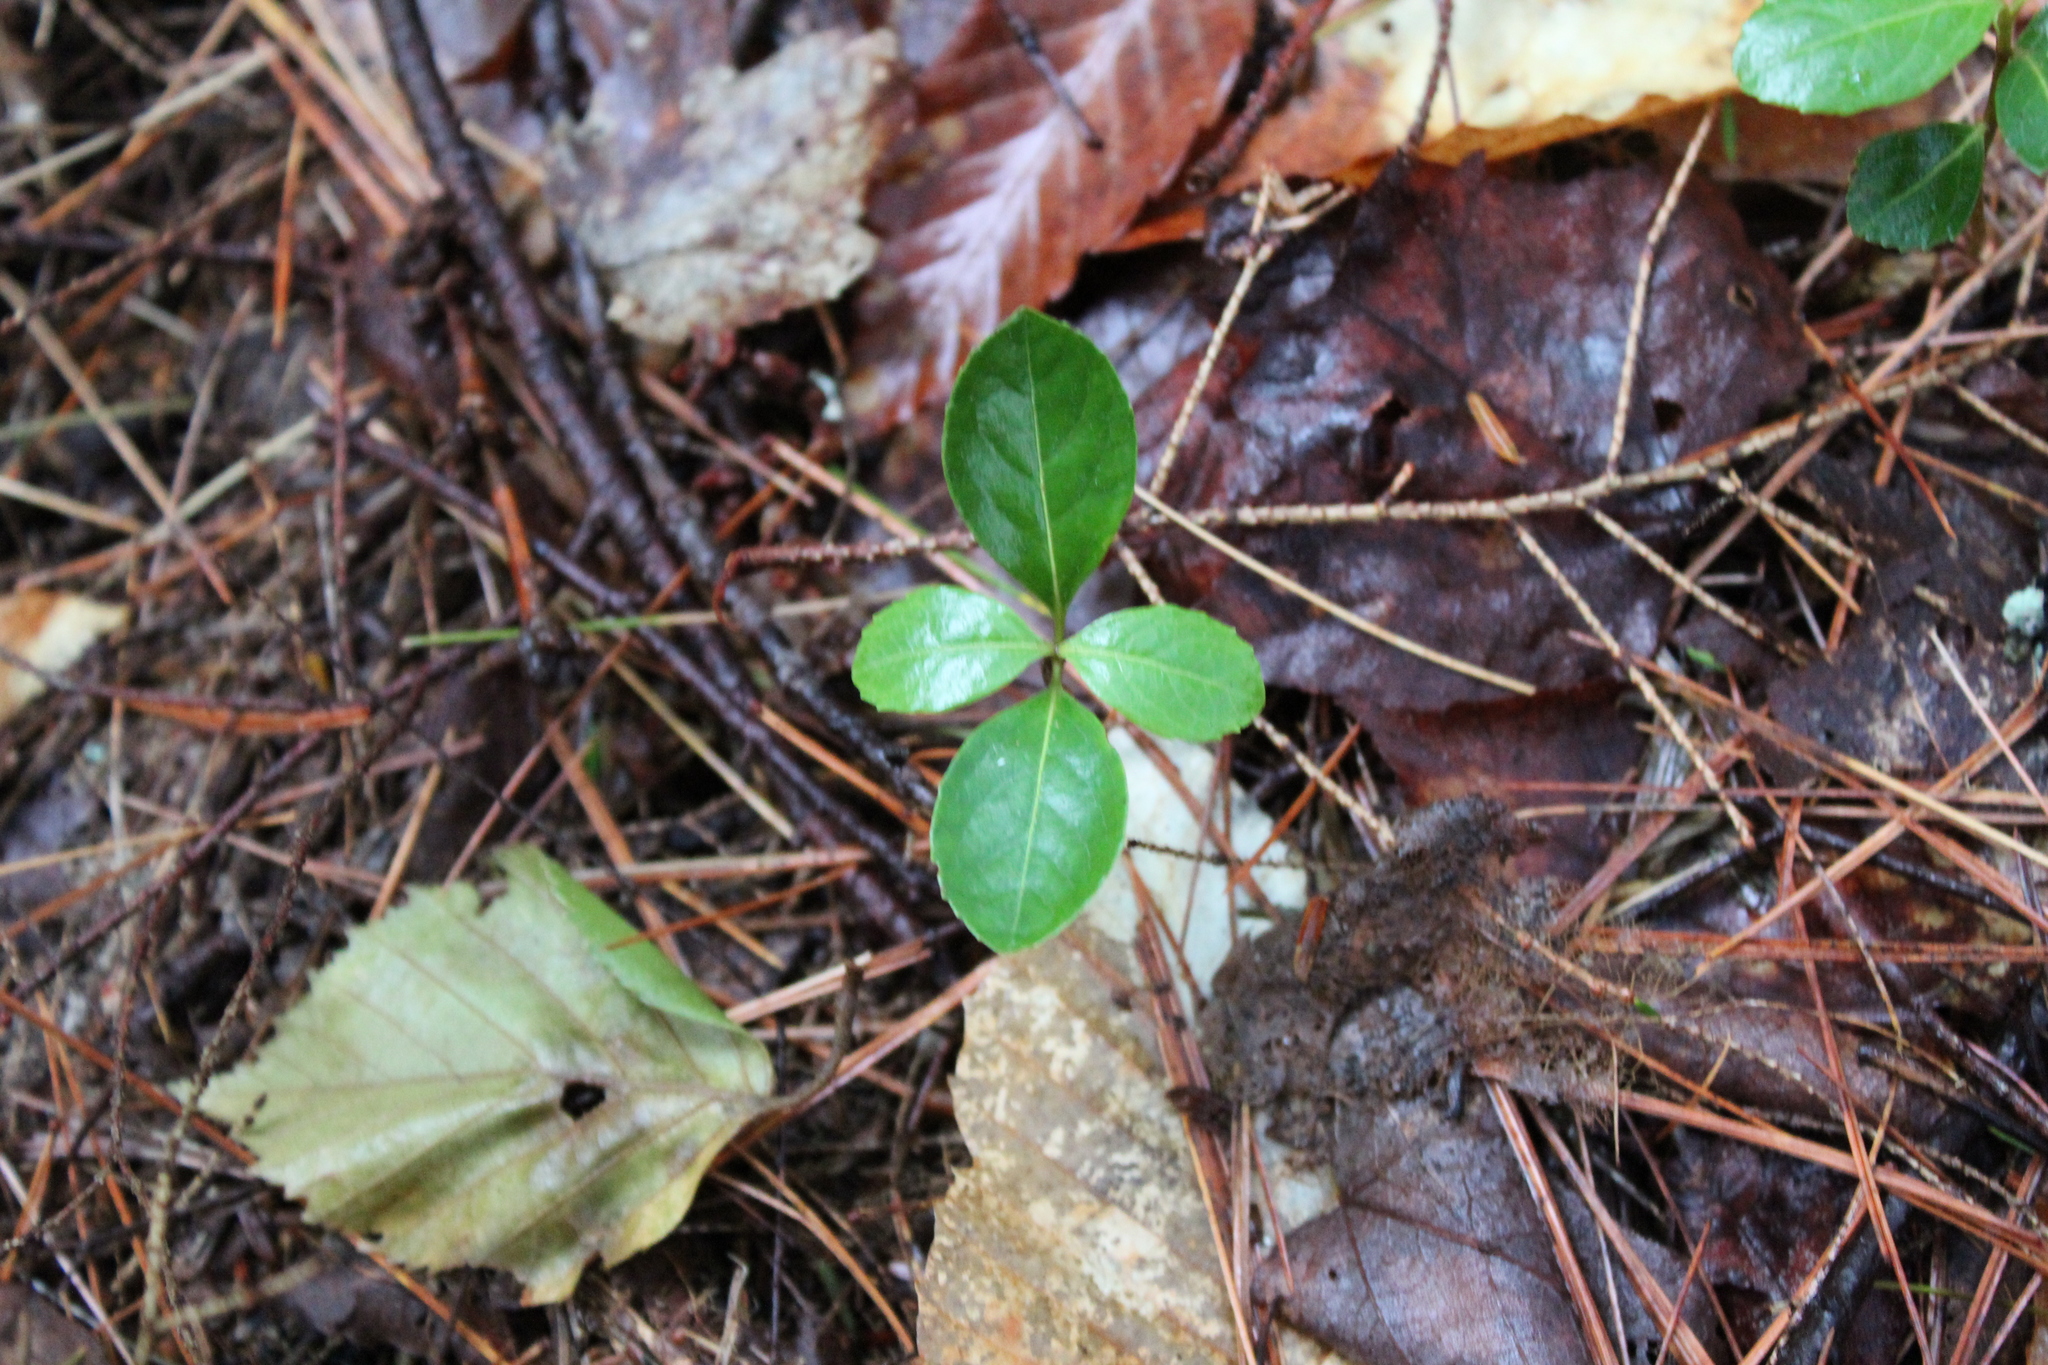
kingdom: Plantae
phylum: Tracheophyta
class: Magnoliopsida
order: Ericales
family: Ericaceae
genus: Gaultheria
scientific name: Gaultheria procumbens
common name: Checkerberry
